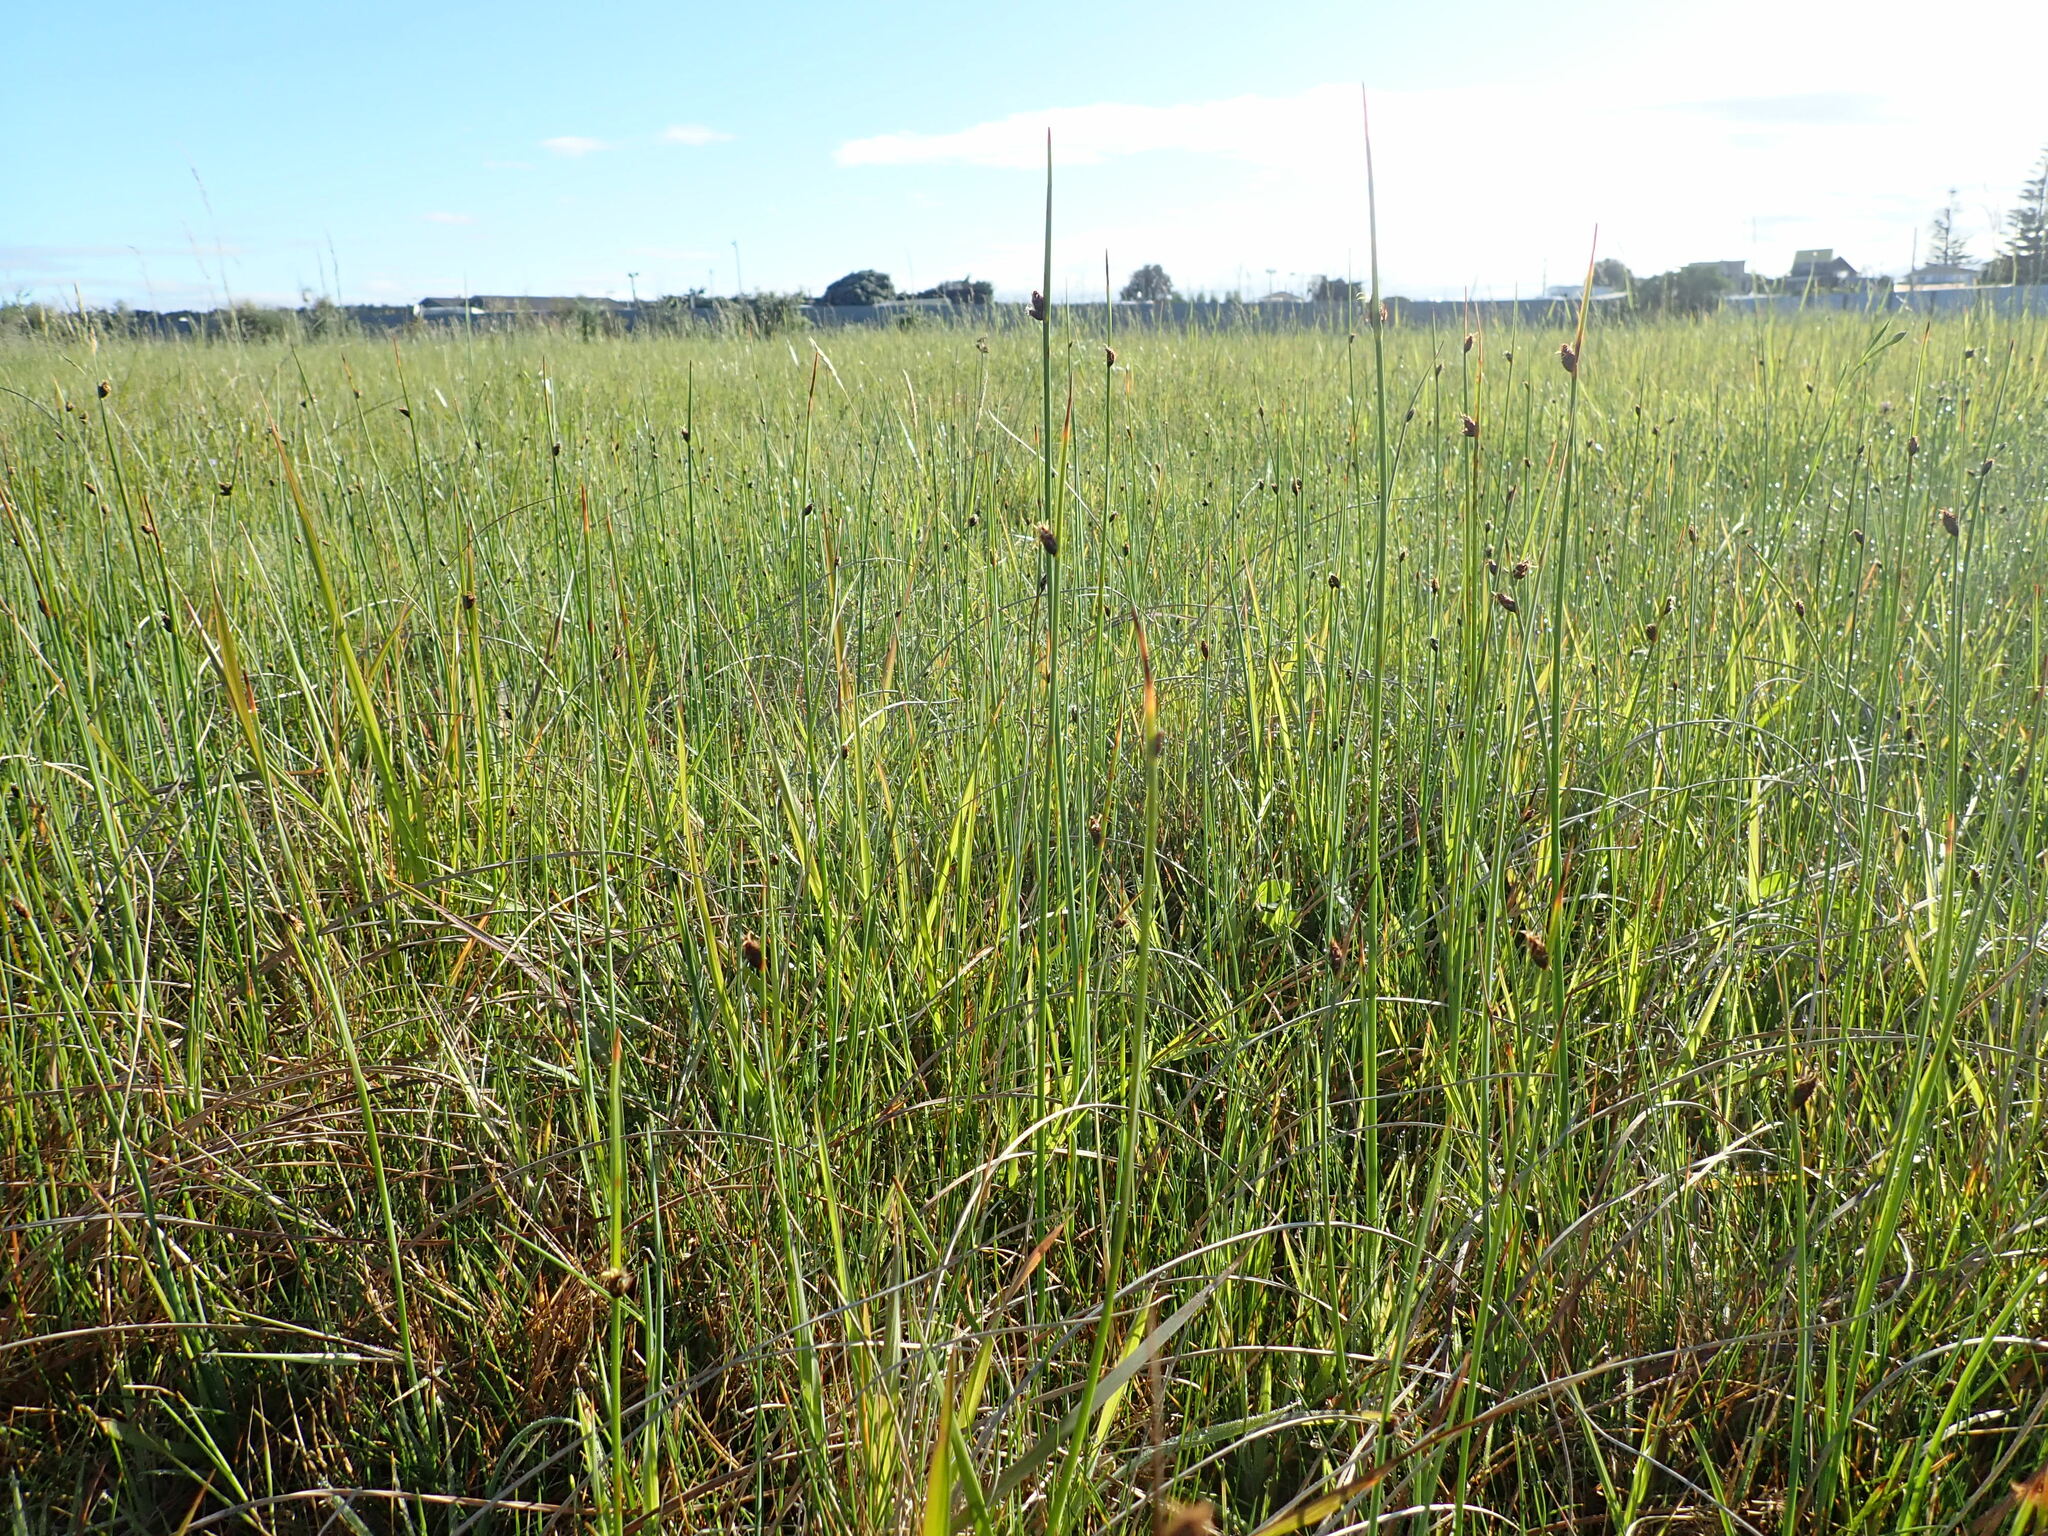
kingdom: Plantae
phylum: Tracheophyta
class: Liliopsida
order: Poales
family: Cyperaceae
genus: Schoenoplectus
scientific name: Schoenoplectus pungens
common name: Sharp club-rush
